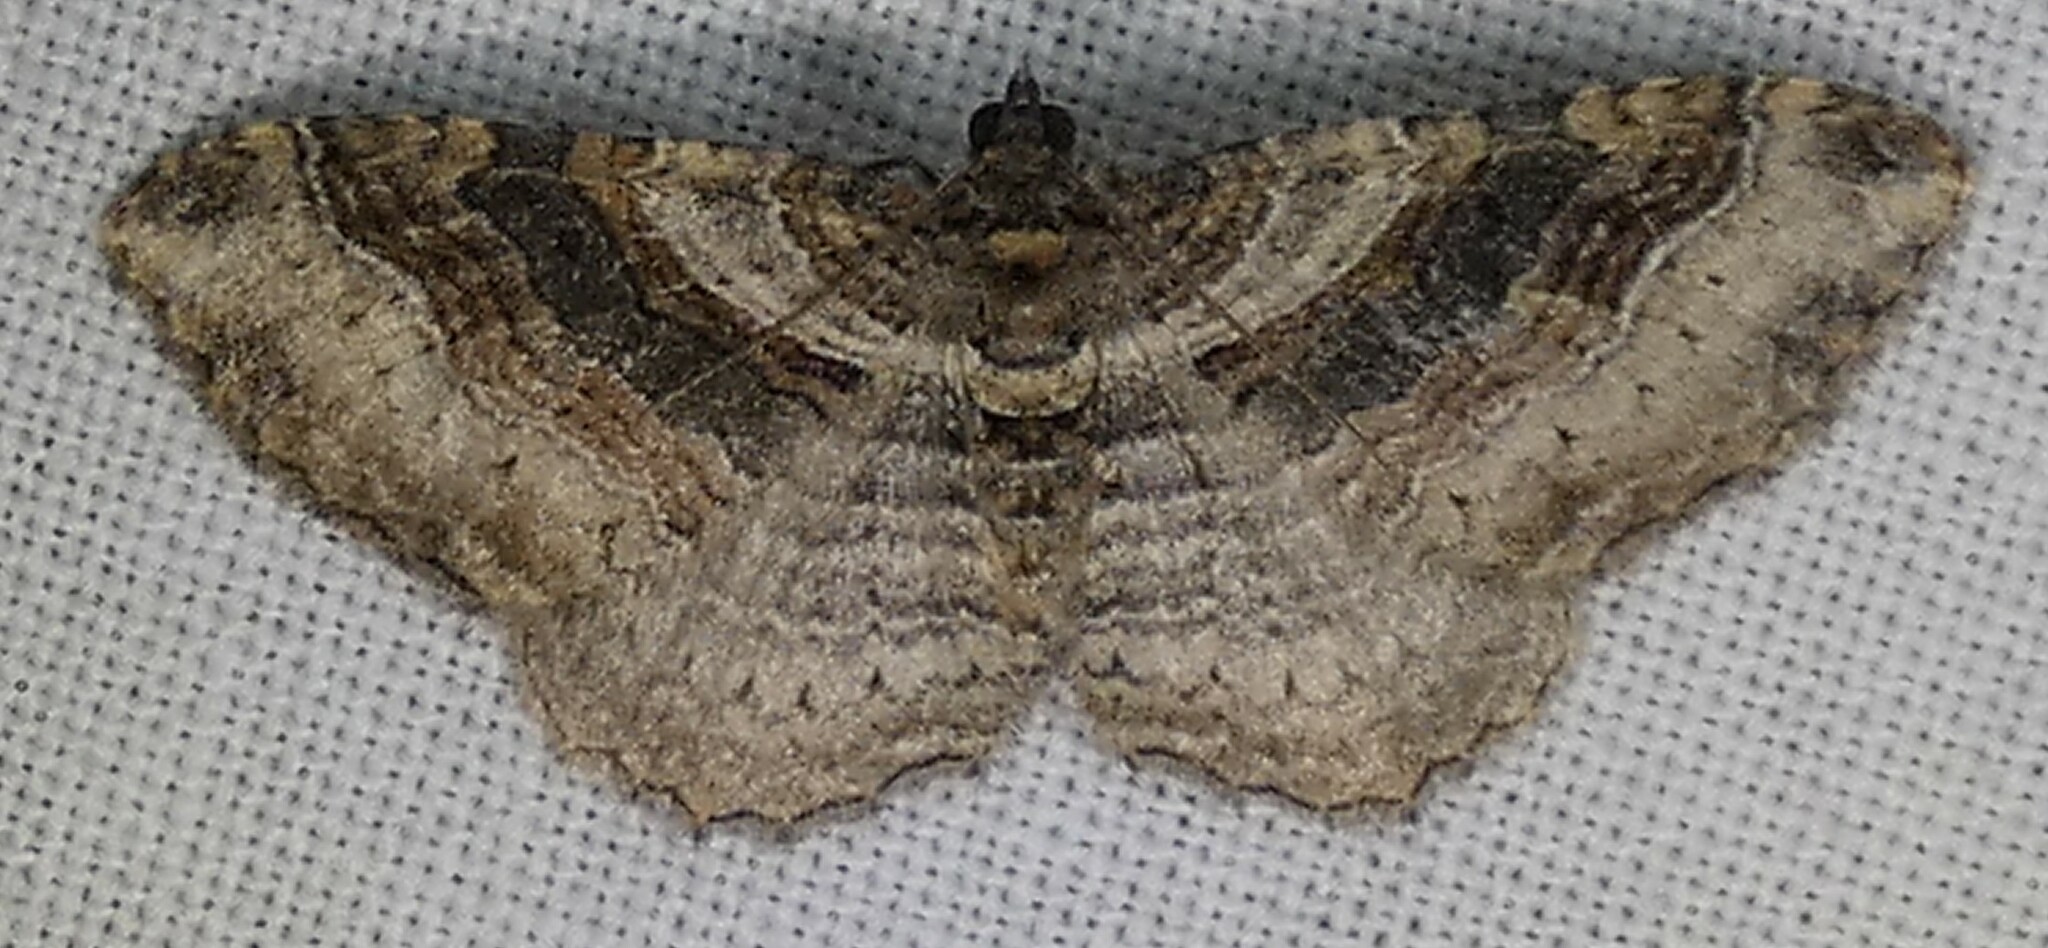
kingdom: Animalia
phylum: Arthropoda
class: Insecta
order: Lepidoptera
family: Geometridae
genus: Costaconvexa
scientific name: Costaconvexa centrostrigaria
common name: Bent-line carpet
